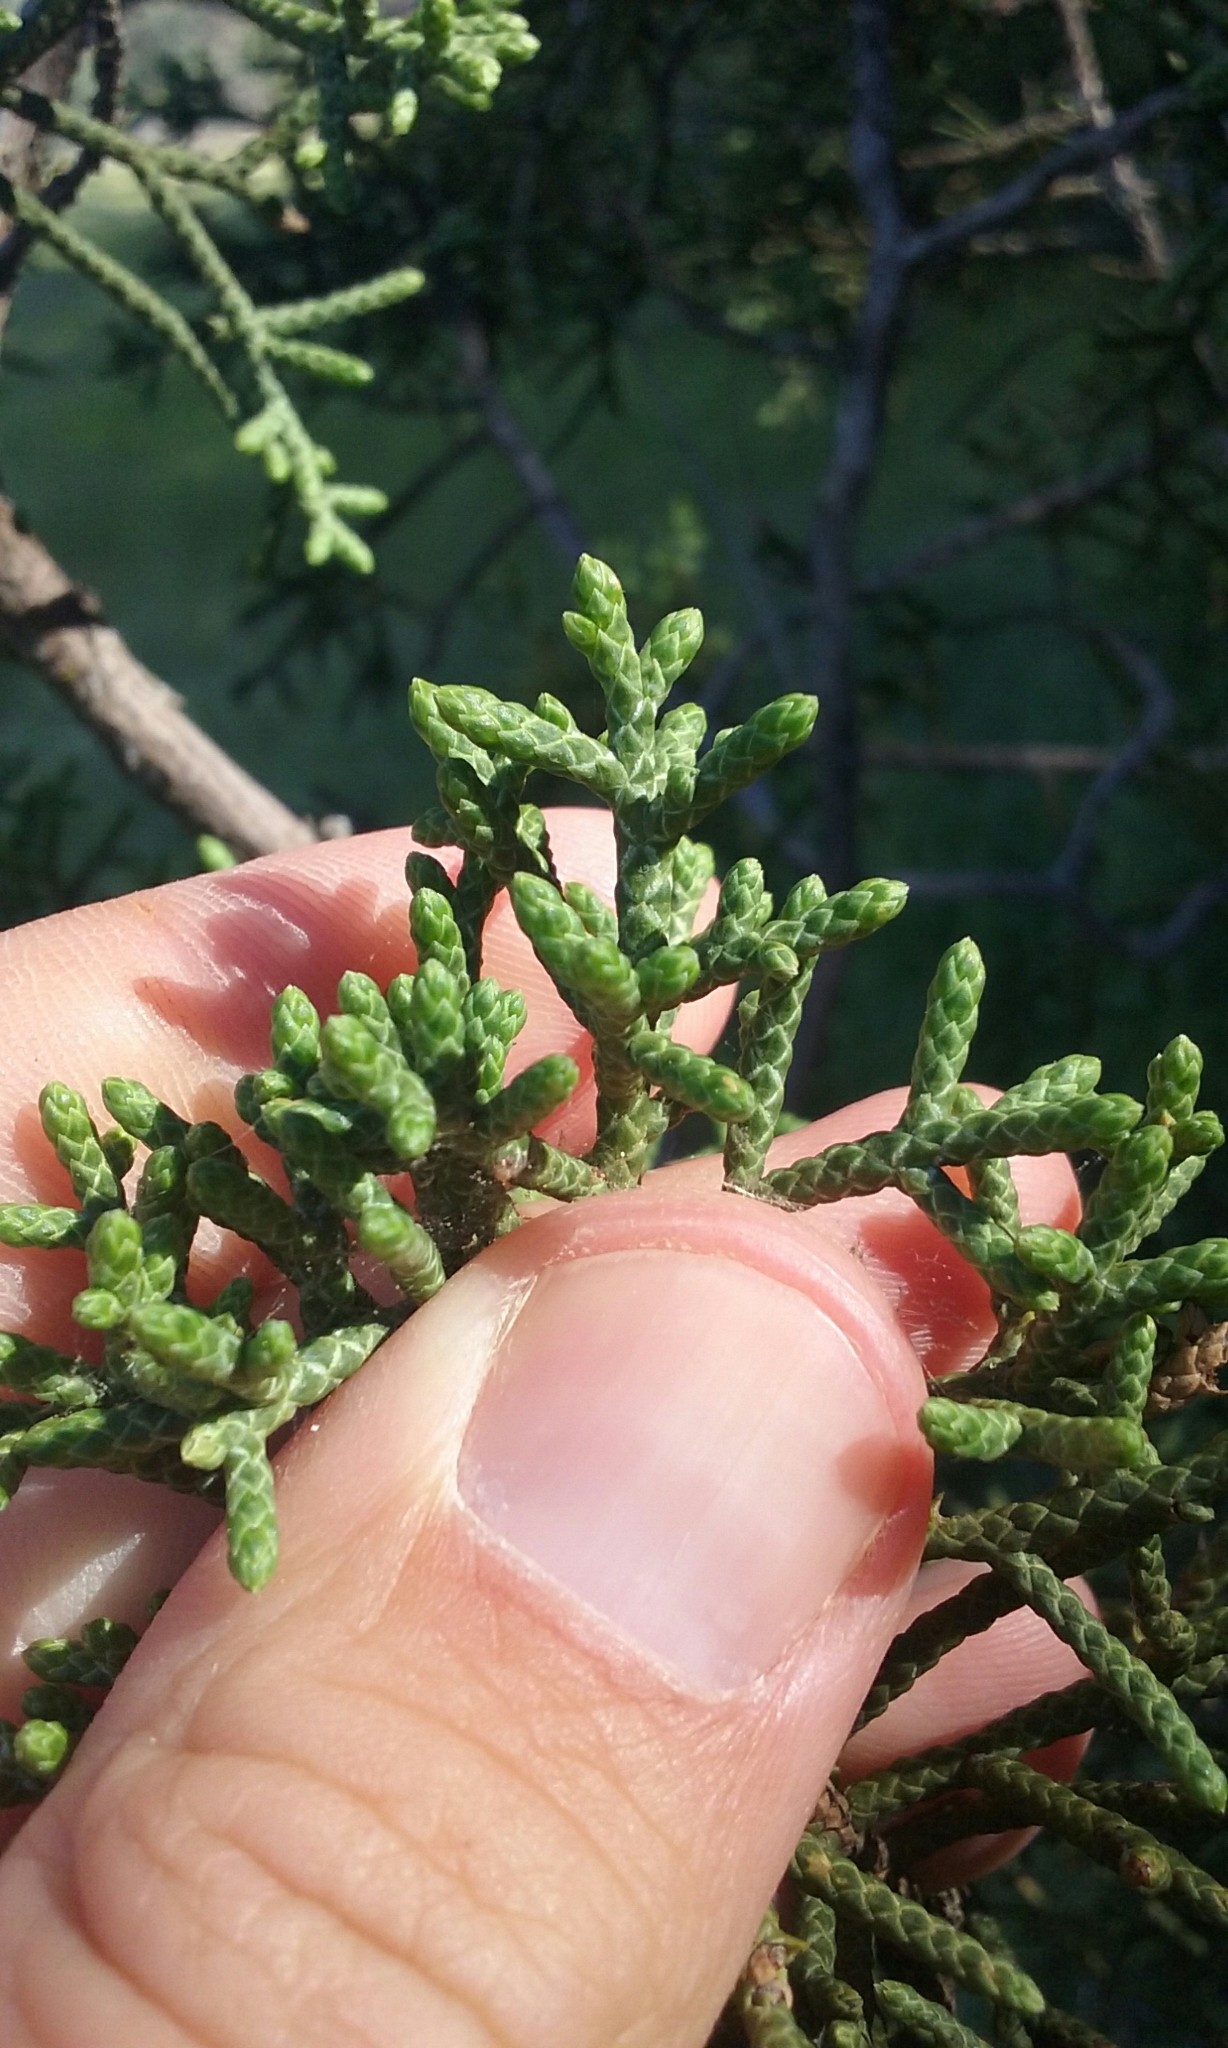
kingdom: Plantae
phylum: Tracheophyta
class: Pinopsida
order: Pinales
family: Cupressaceae
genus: Juniperus
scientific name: Juniperus californica
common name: California juniper
